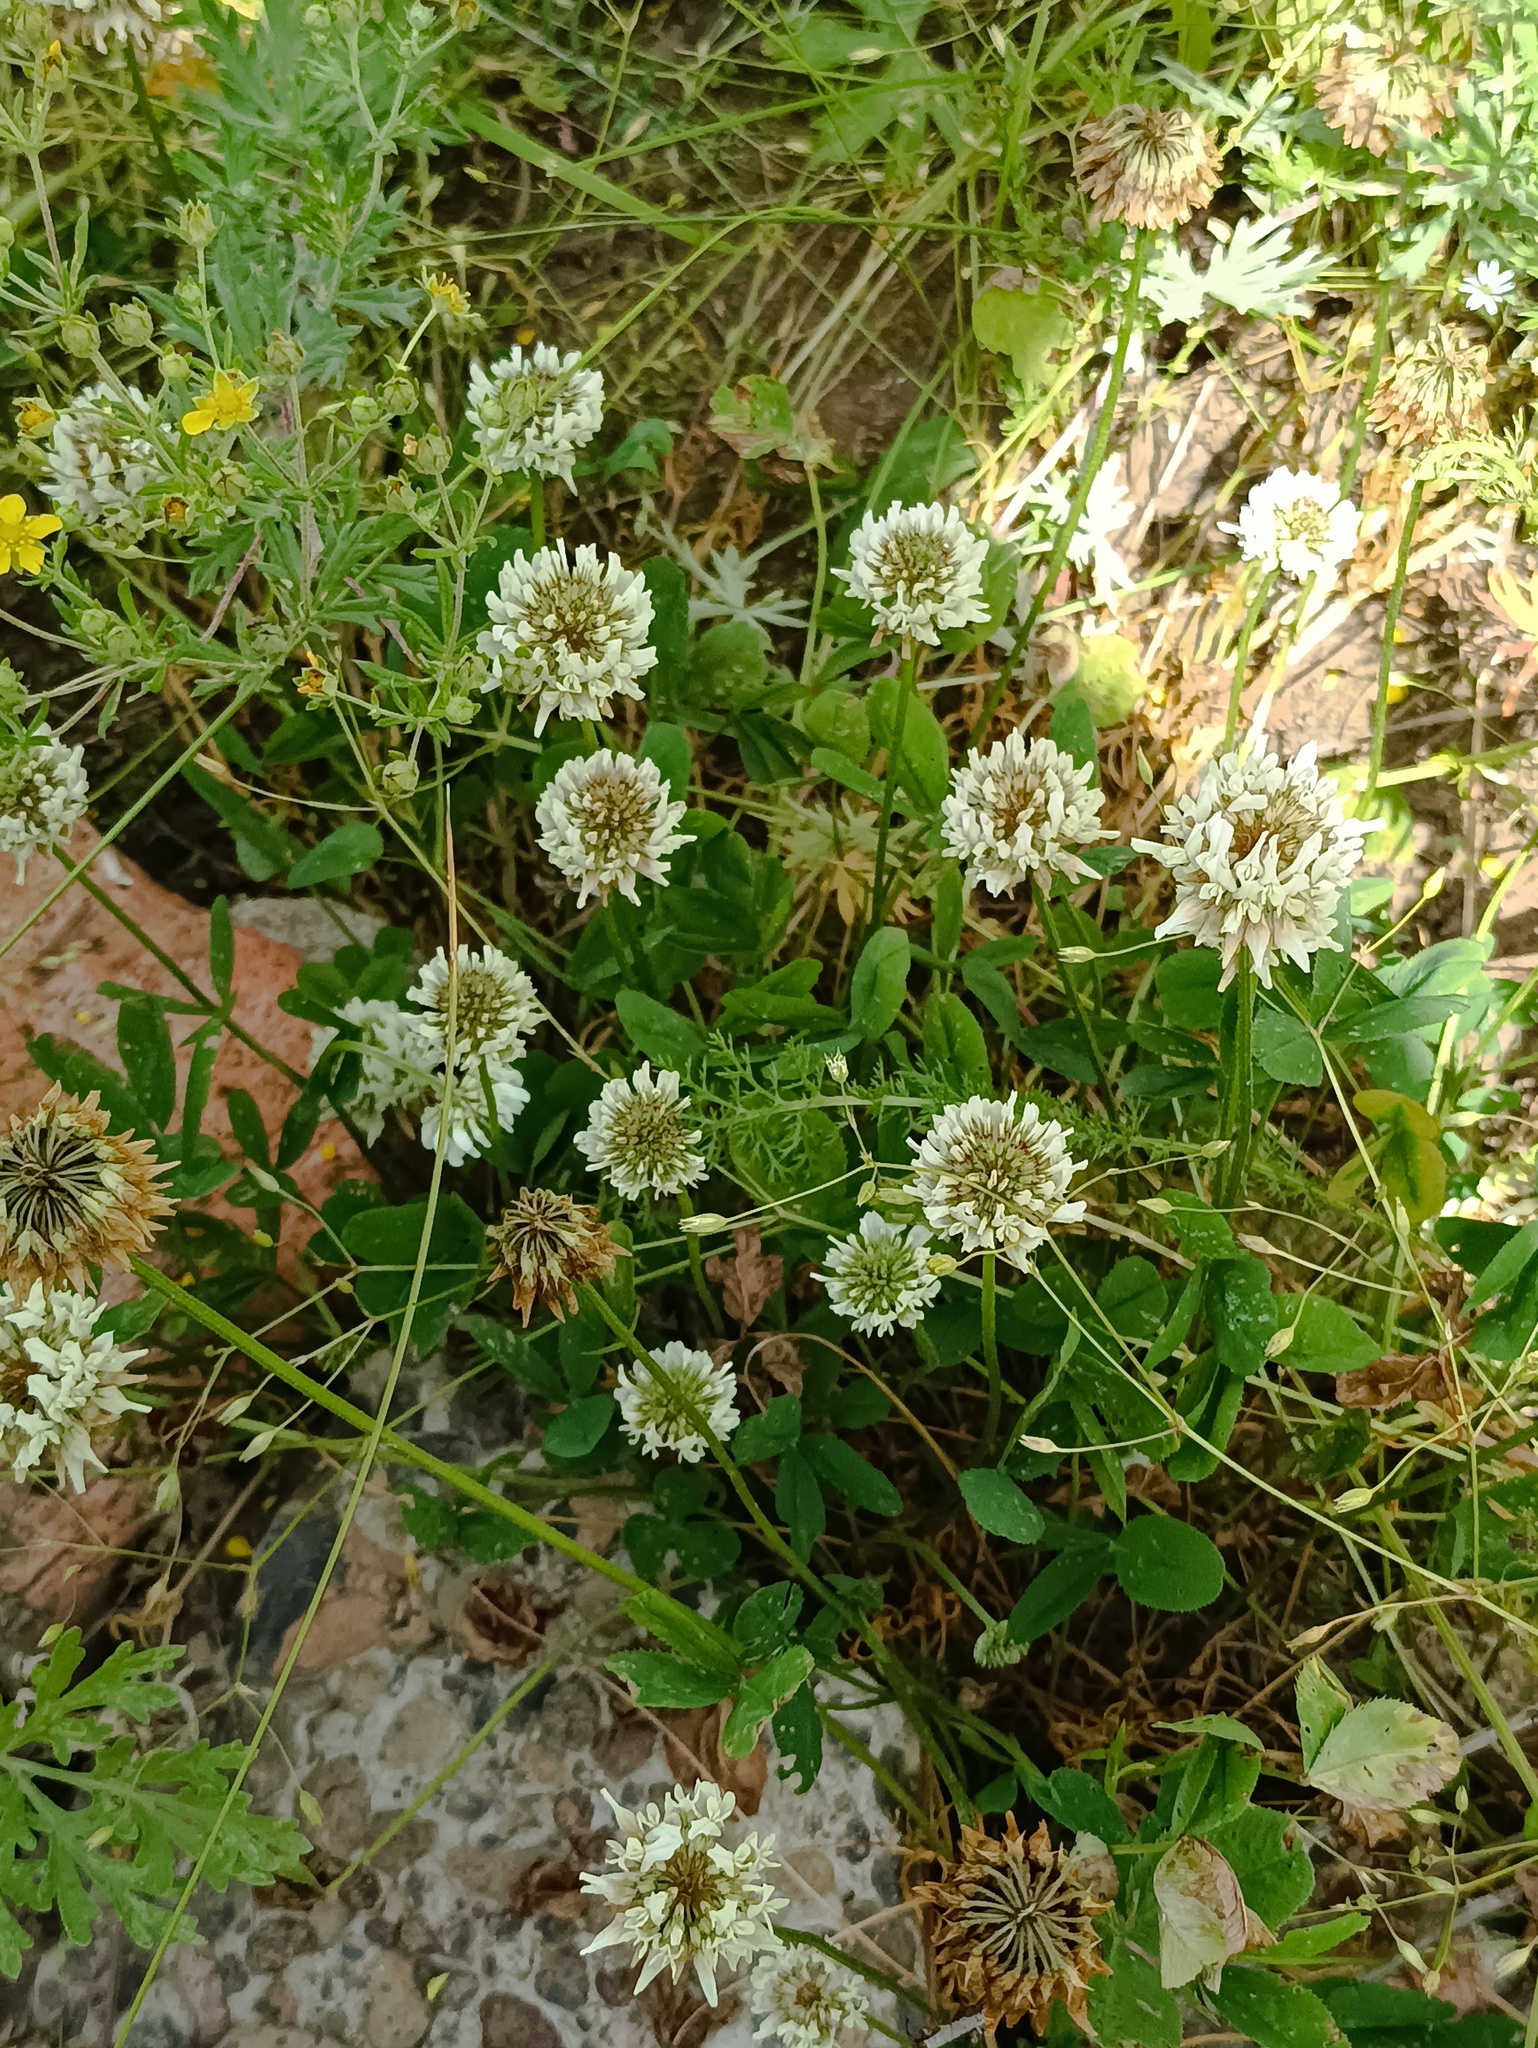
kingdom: Plantae
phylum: Tracheophyta
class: Magnoliopsida
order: Fabales
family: Fabaceae
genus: Trifolium
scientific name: Trifolium repens
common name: White clover
